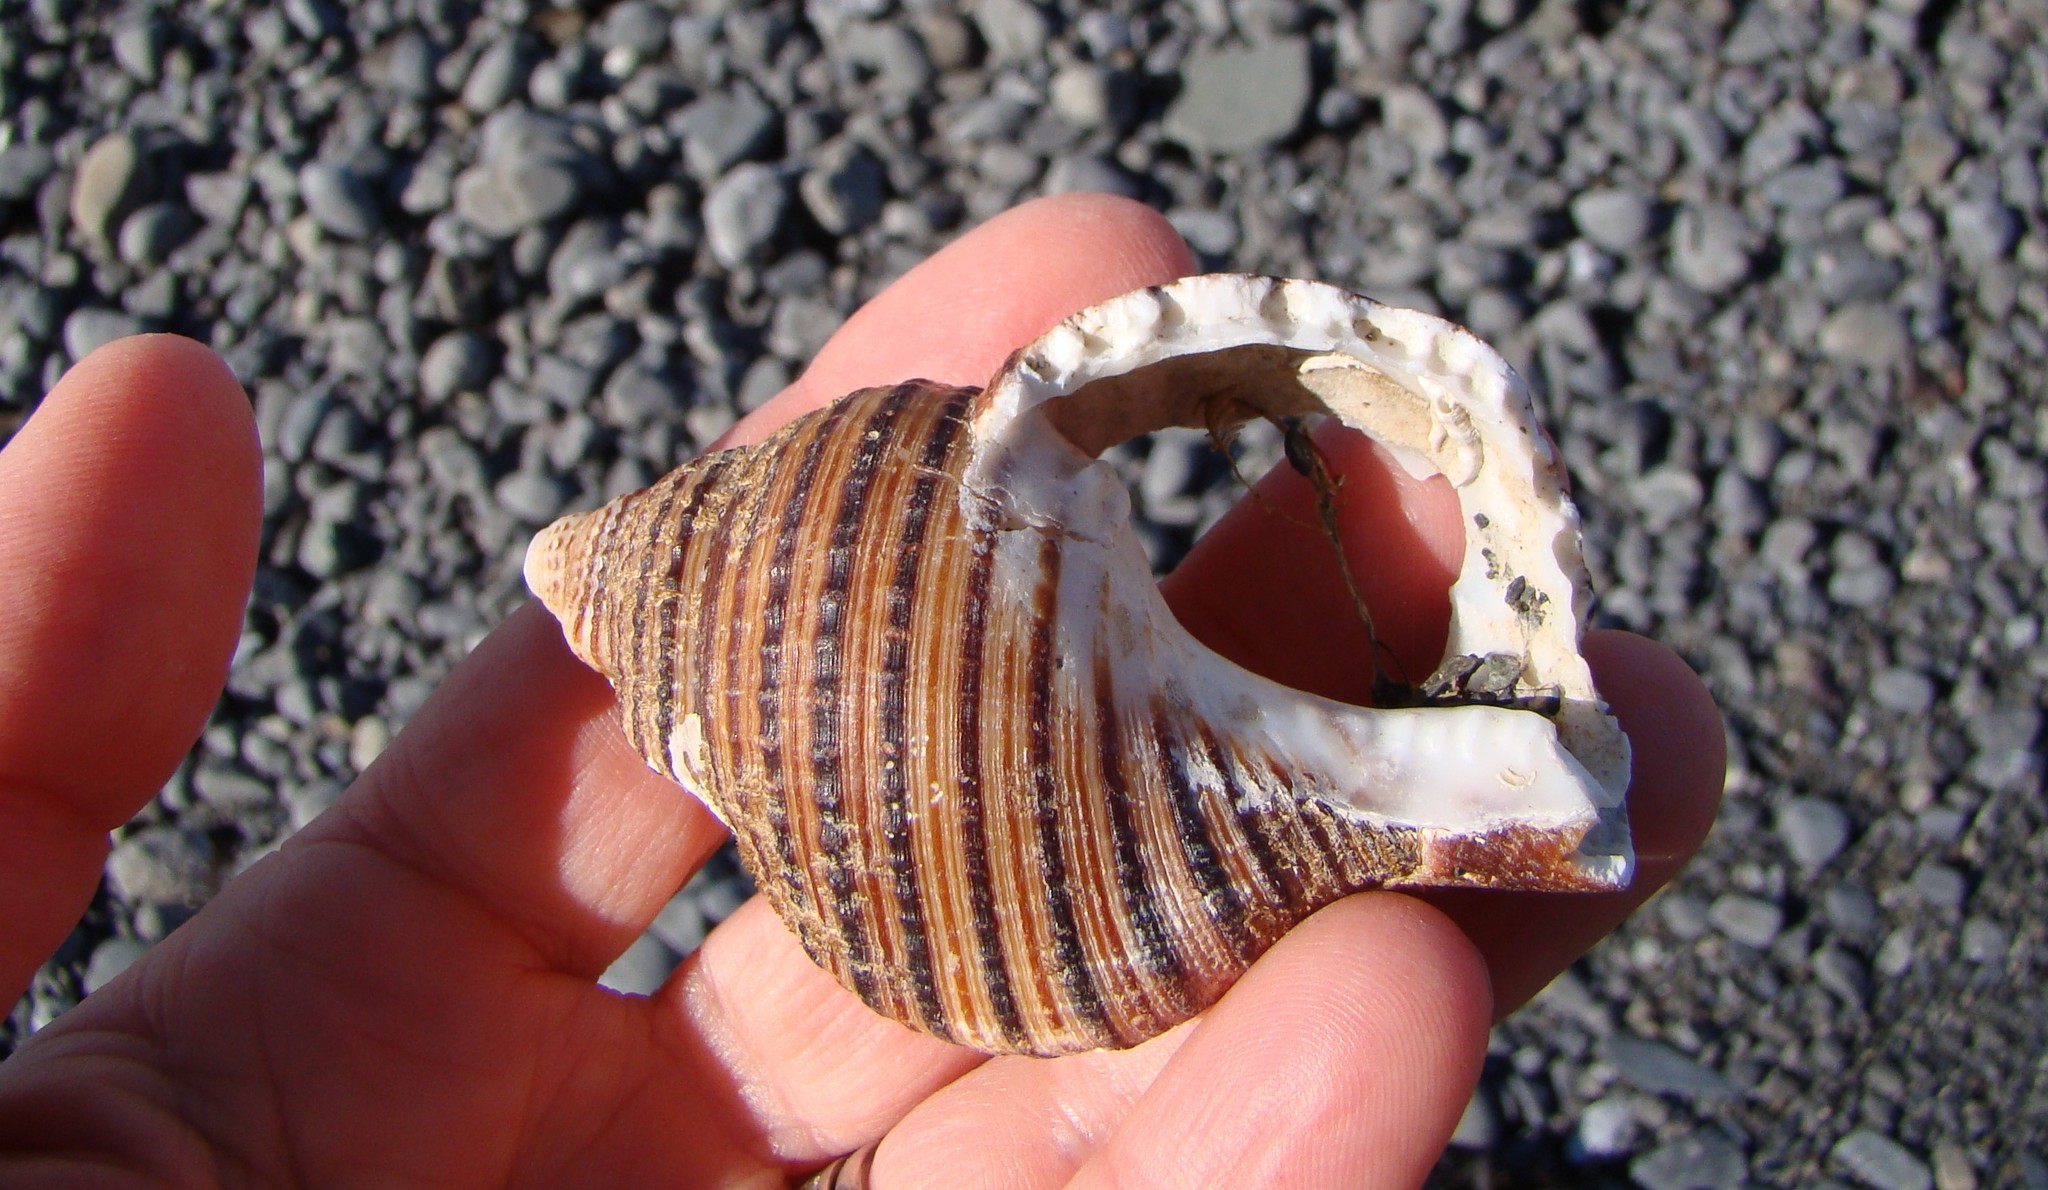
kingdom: Animalia
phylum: Mollusca
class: Gastropoda
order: Littorinimorpha
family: Cymatiidae
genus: Argobuccinum
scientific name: Argobuccinum pustulosum
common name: Pustular triton
